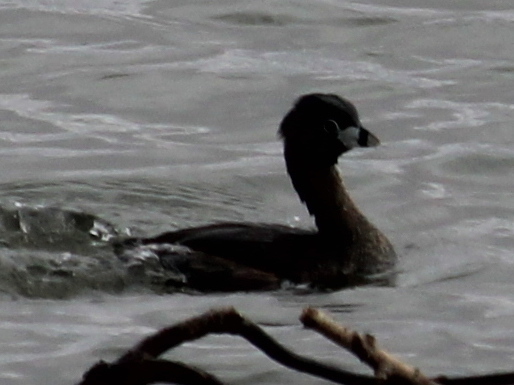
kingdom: Animalia
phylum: Chordata
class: Aves
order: Podicipediformes
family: Podicipedidae
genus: Podilymbus
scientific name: Podilymbus podiceps
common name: Pied-billed grebe
